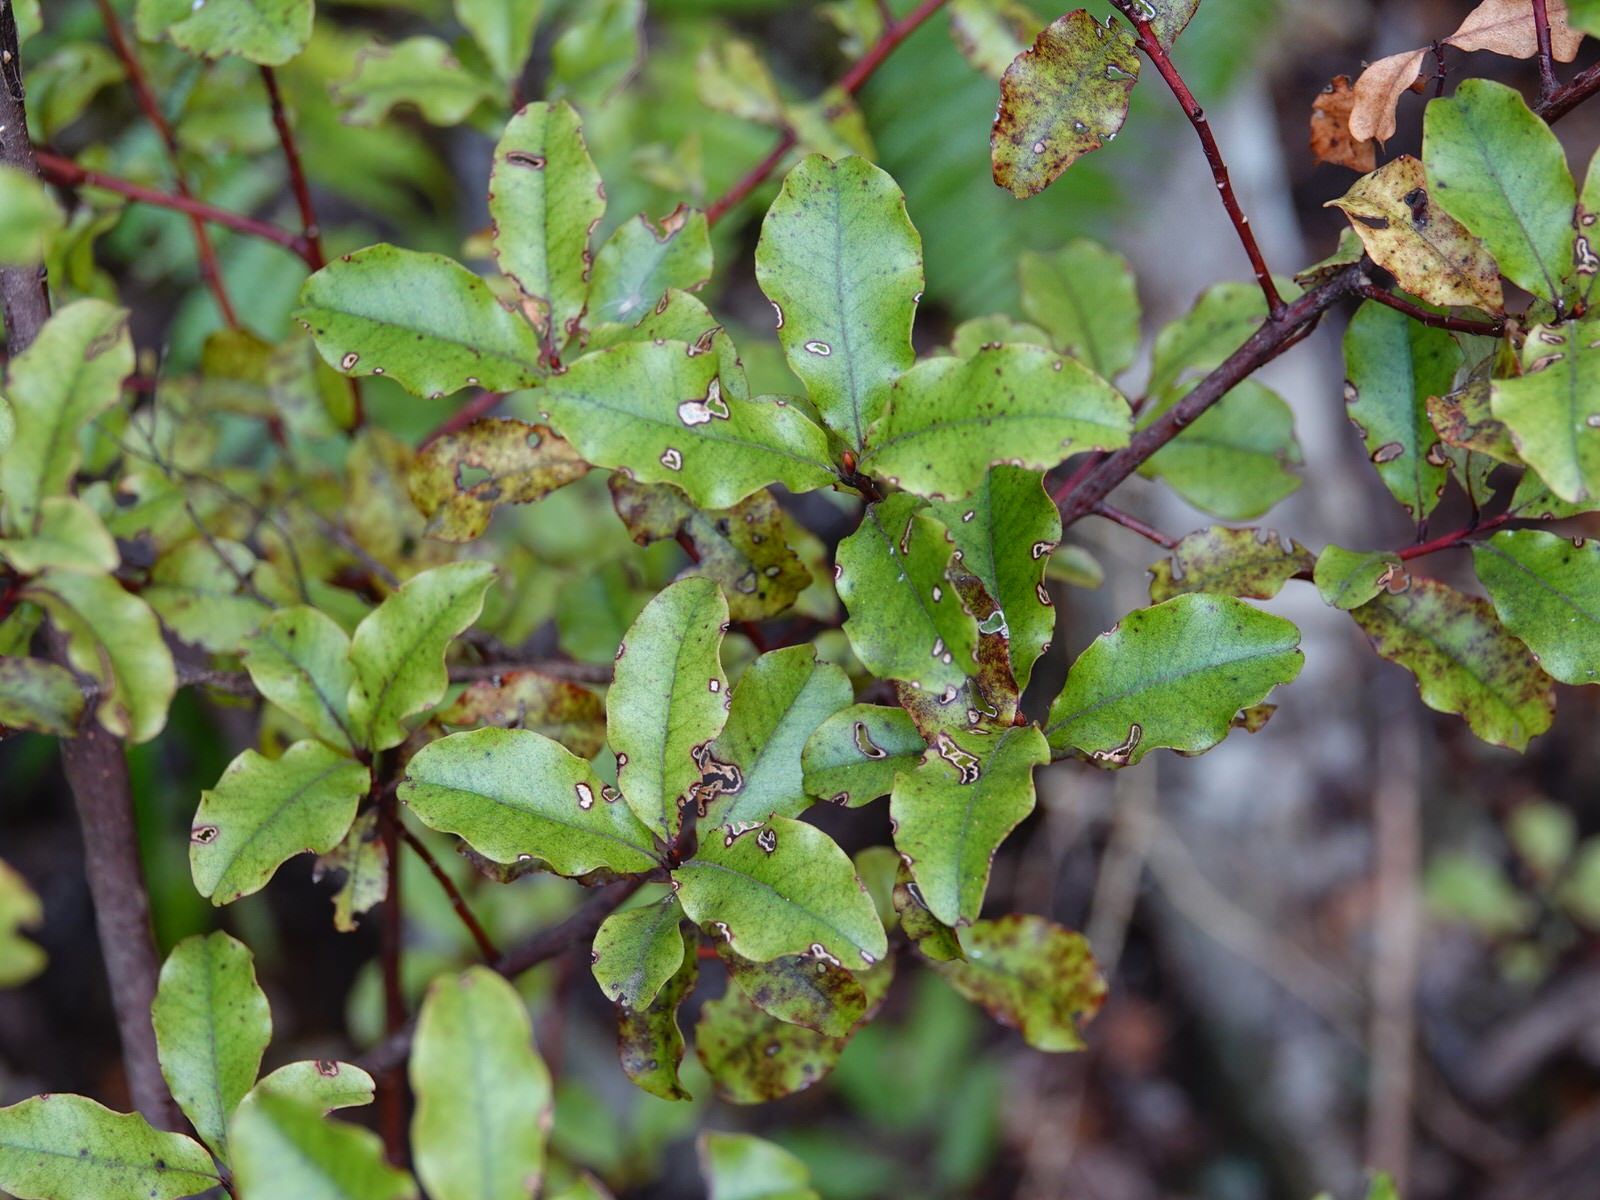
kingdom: Plantae
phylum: Tracheophyta
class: Magnoliopsida
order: Ericales
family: Primulaceae
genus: Myrsine
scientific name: Myrsine australis
